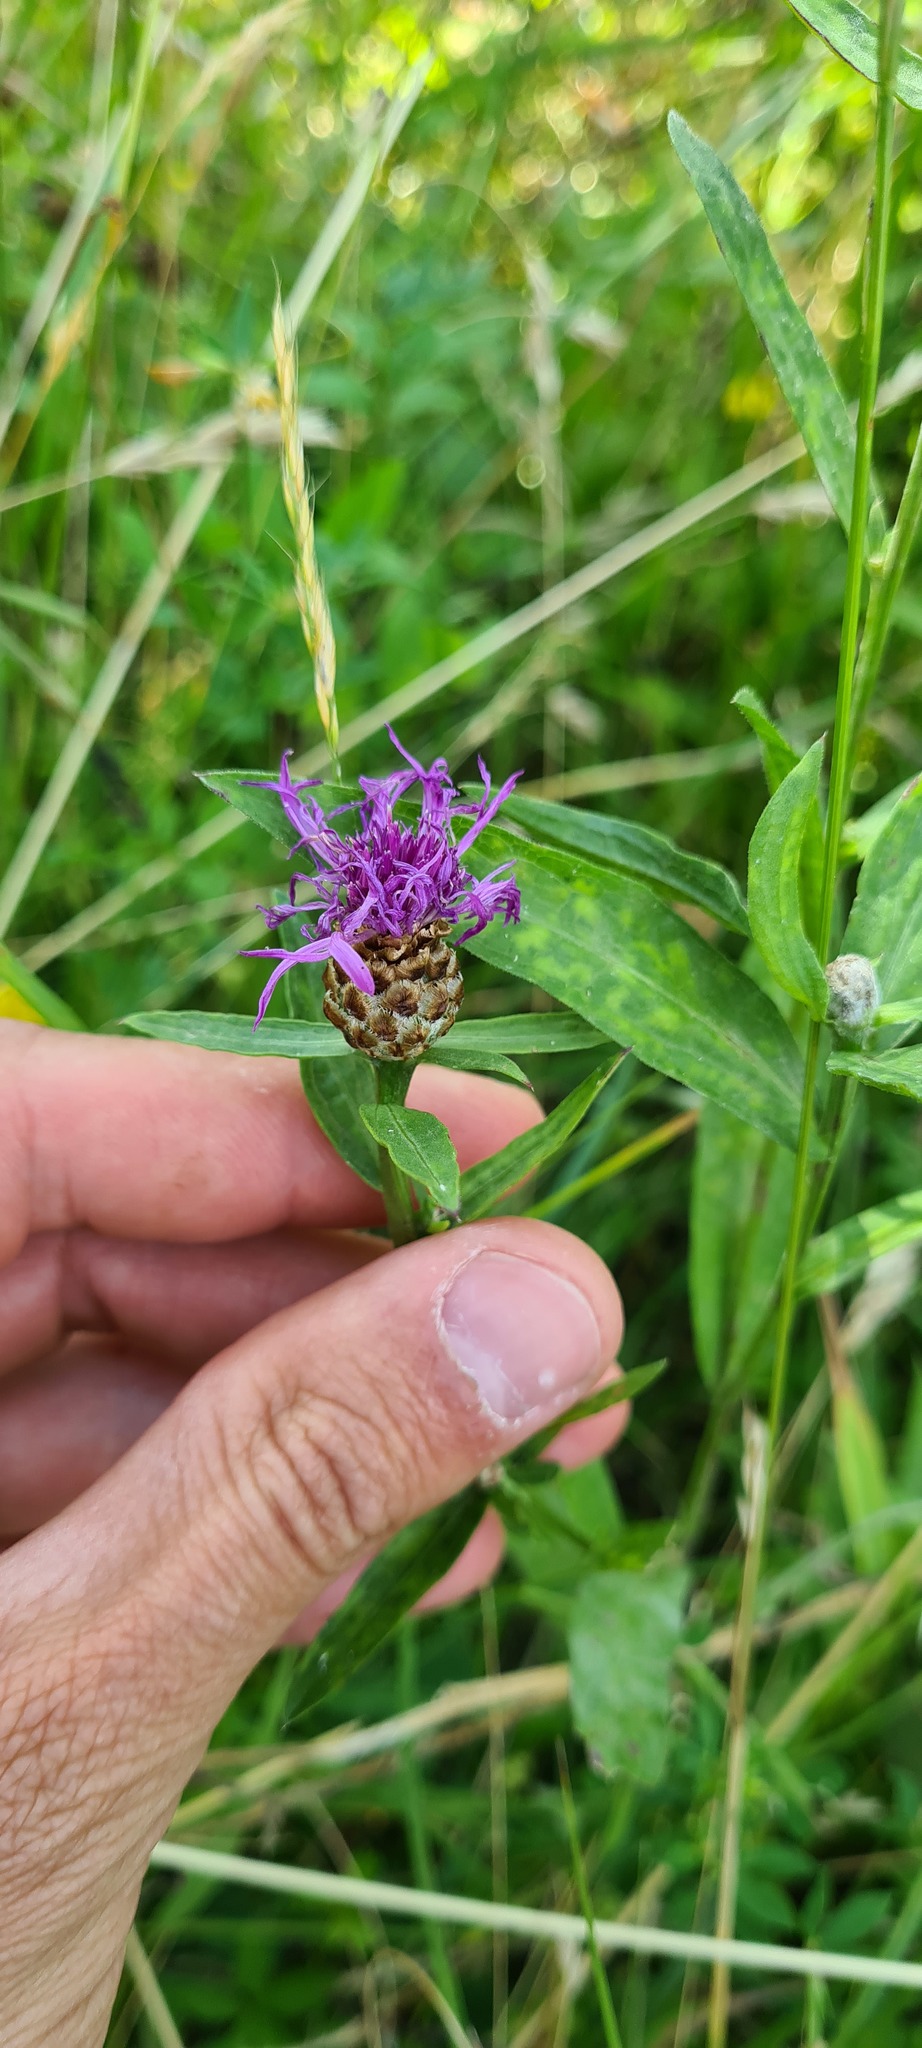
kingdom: Plantae
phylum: Tracheophyta
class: Magnoliopsida
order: Asterales
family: Asteraceae
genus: Centaurea
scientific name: Centaurea jacea
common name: Brown knapweed
